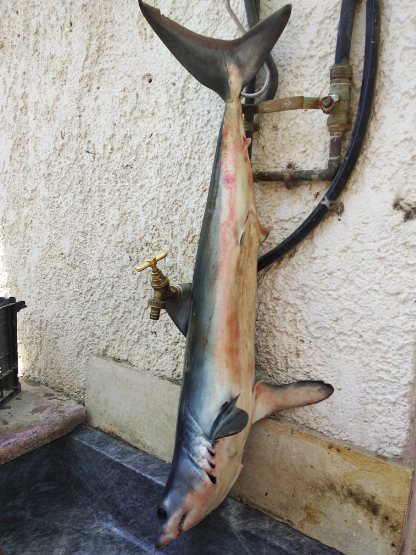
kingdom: Animalia
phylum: Chordata
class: Elasmobranchii
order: Lamniformes
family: Lamnidae
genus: Isurus
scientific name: Isurus oxyrinchus
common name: Shortfin mako
